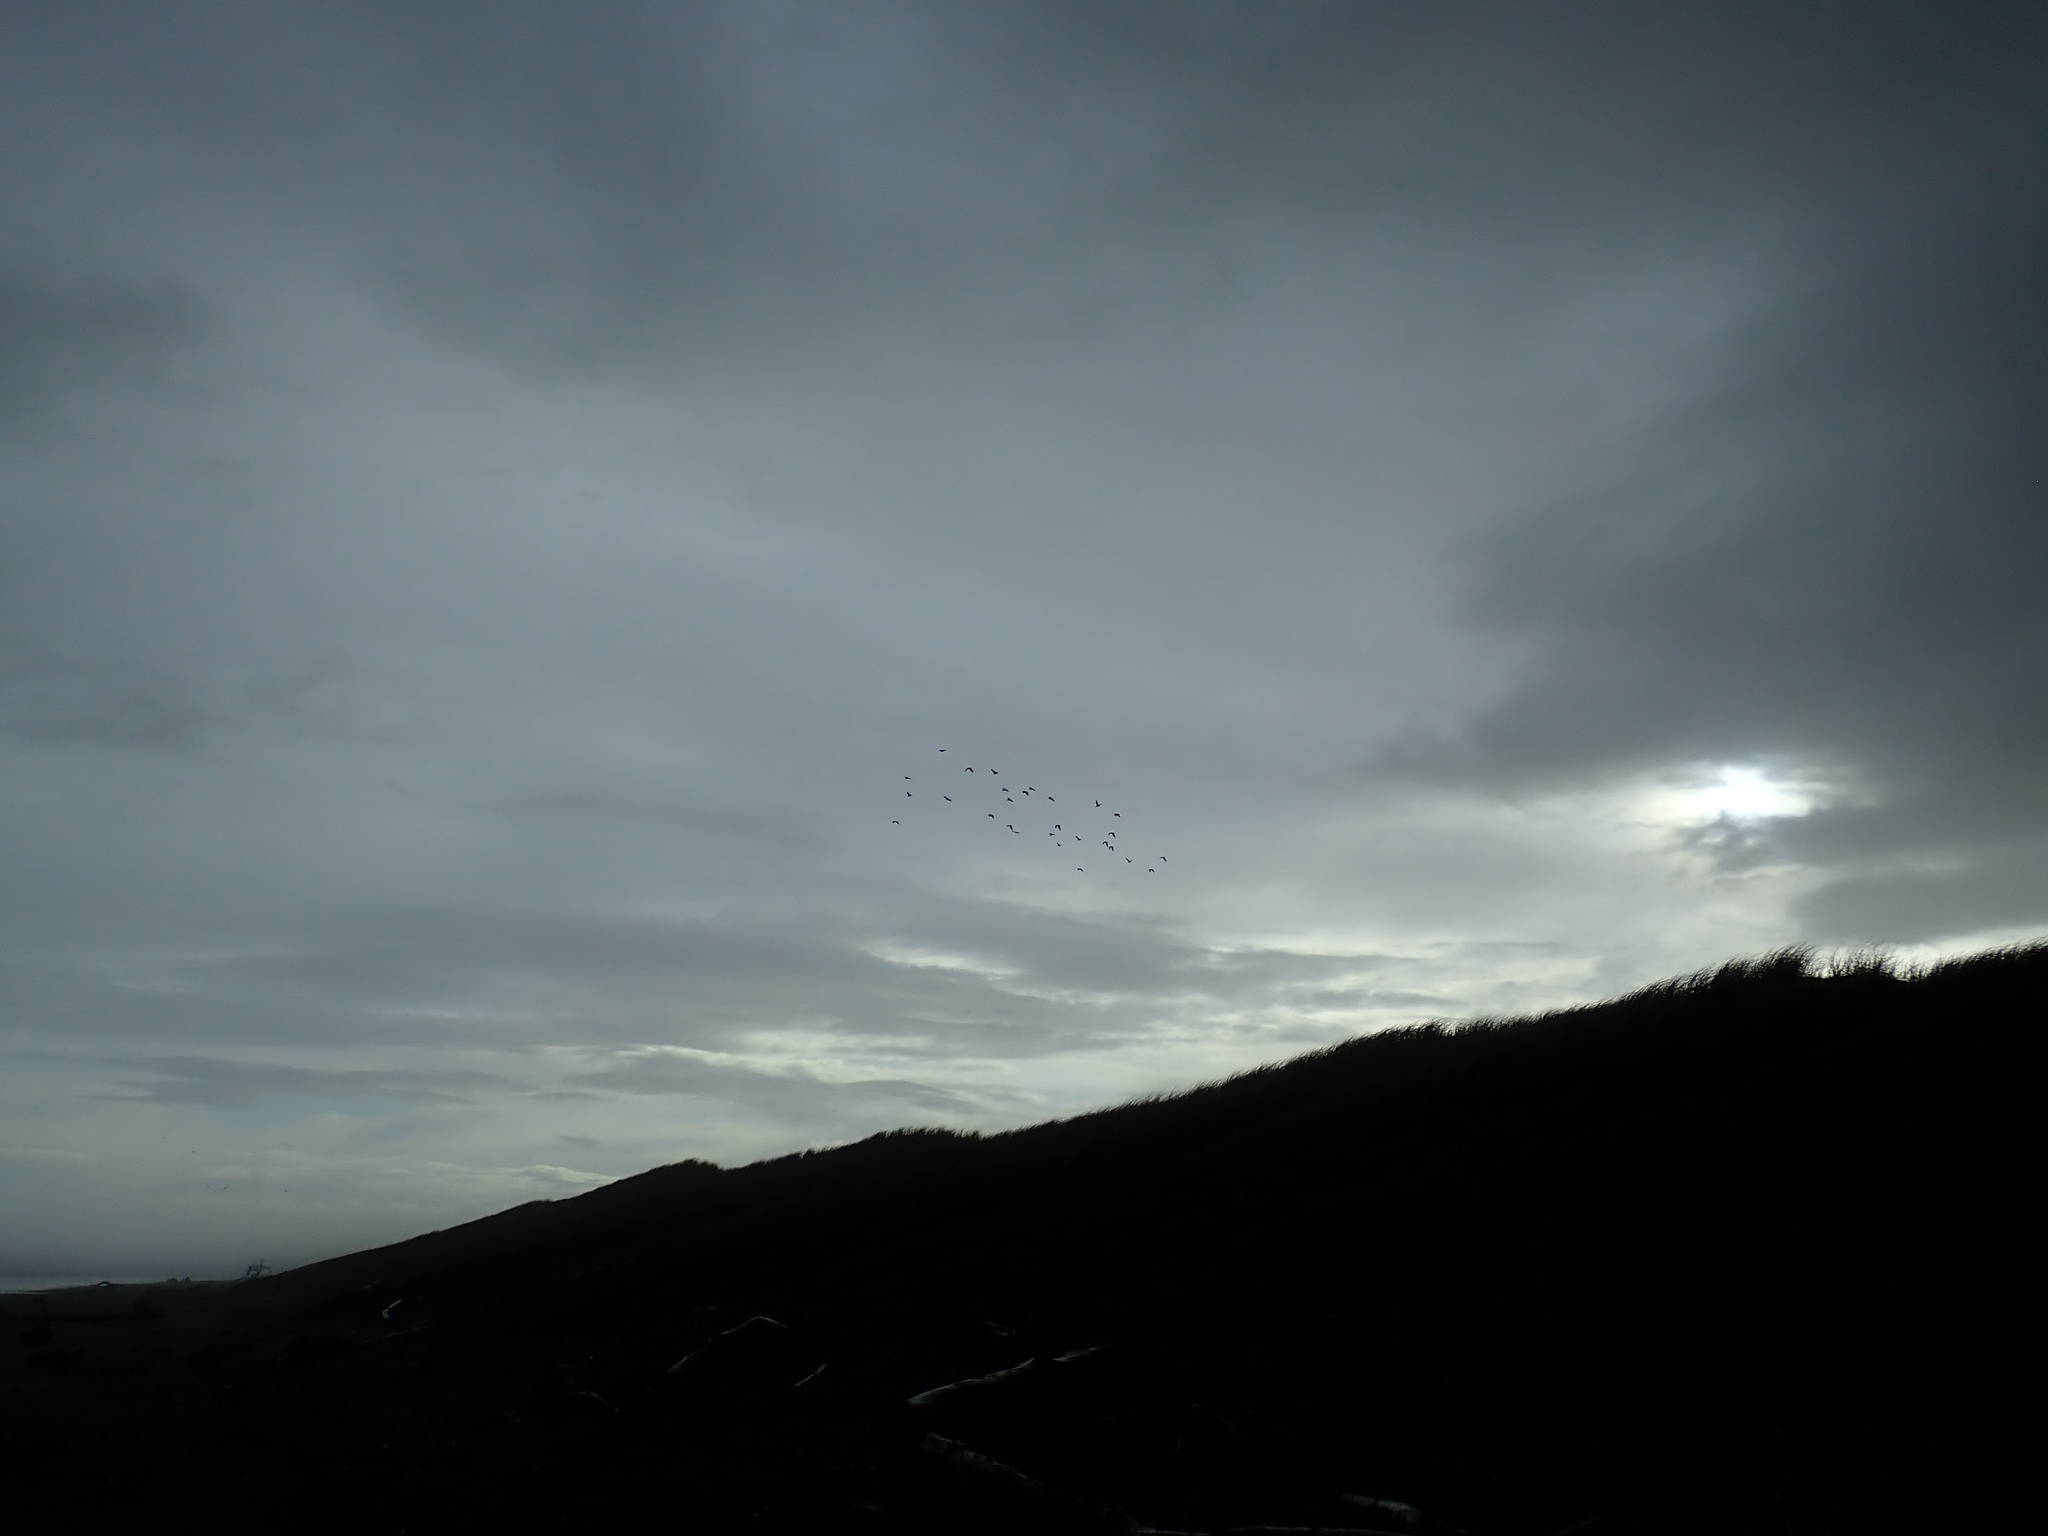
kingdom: Animalia
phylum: Chordata
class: Aves
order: Charadriiformes
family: Charadriidae
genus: Vanellus
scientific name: Vanellus miles
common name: Masked lapwing
